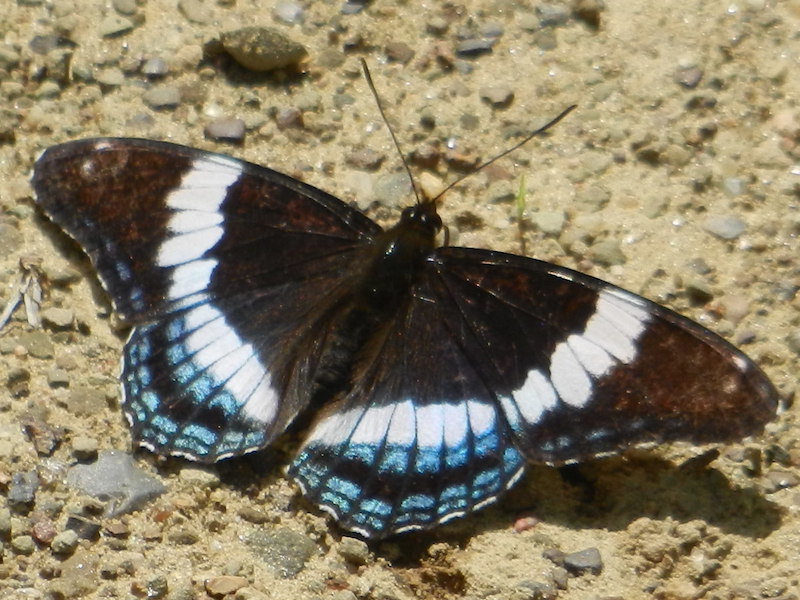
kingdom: Animalia
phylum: Arthropoda
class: Insecta
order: Lepidoptera
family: Nymphalidae
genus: Limenitis
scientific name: Limenitis arthemis
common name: Red-spotted admiral
